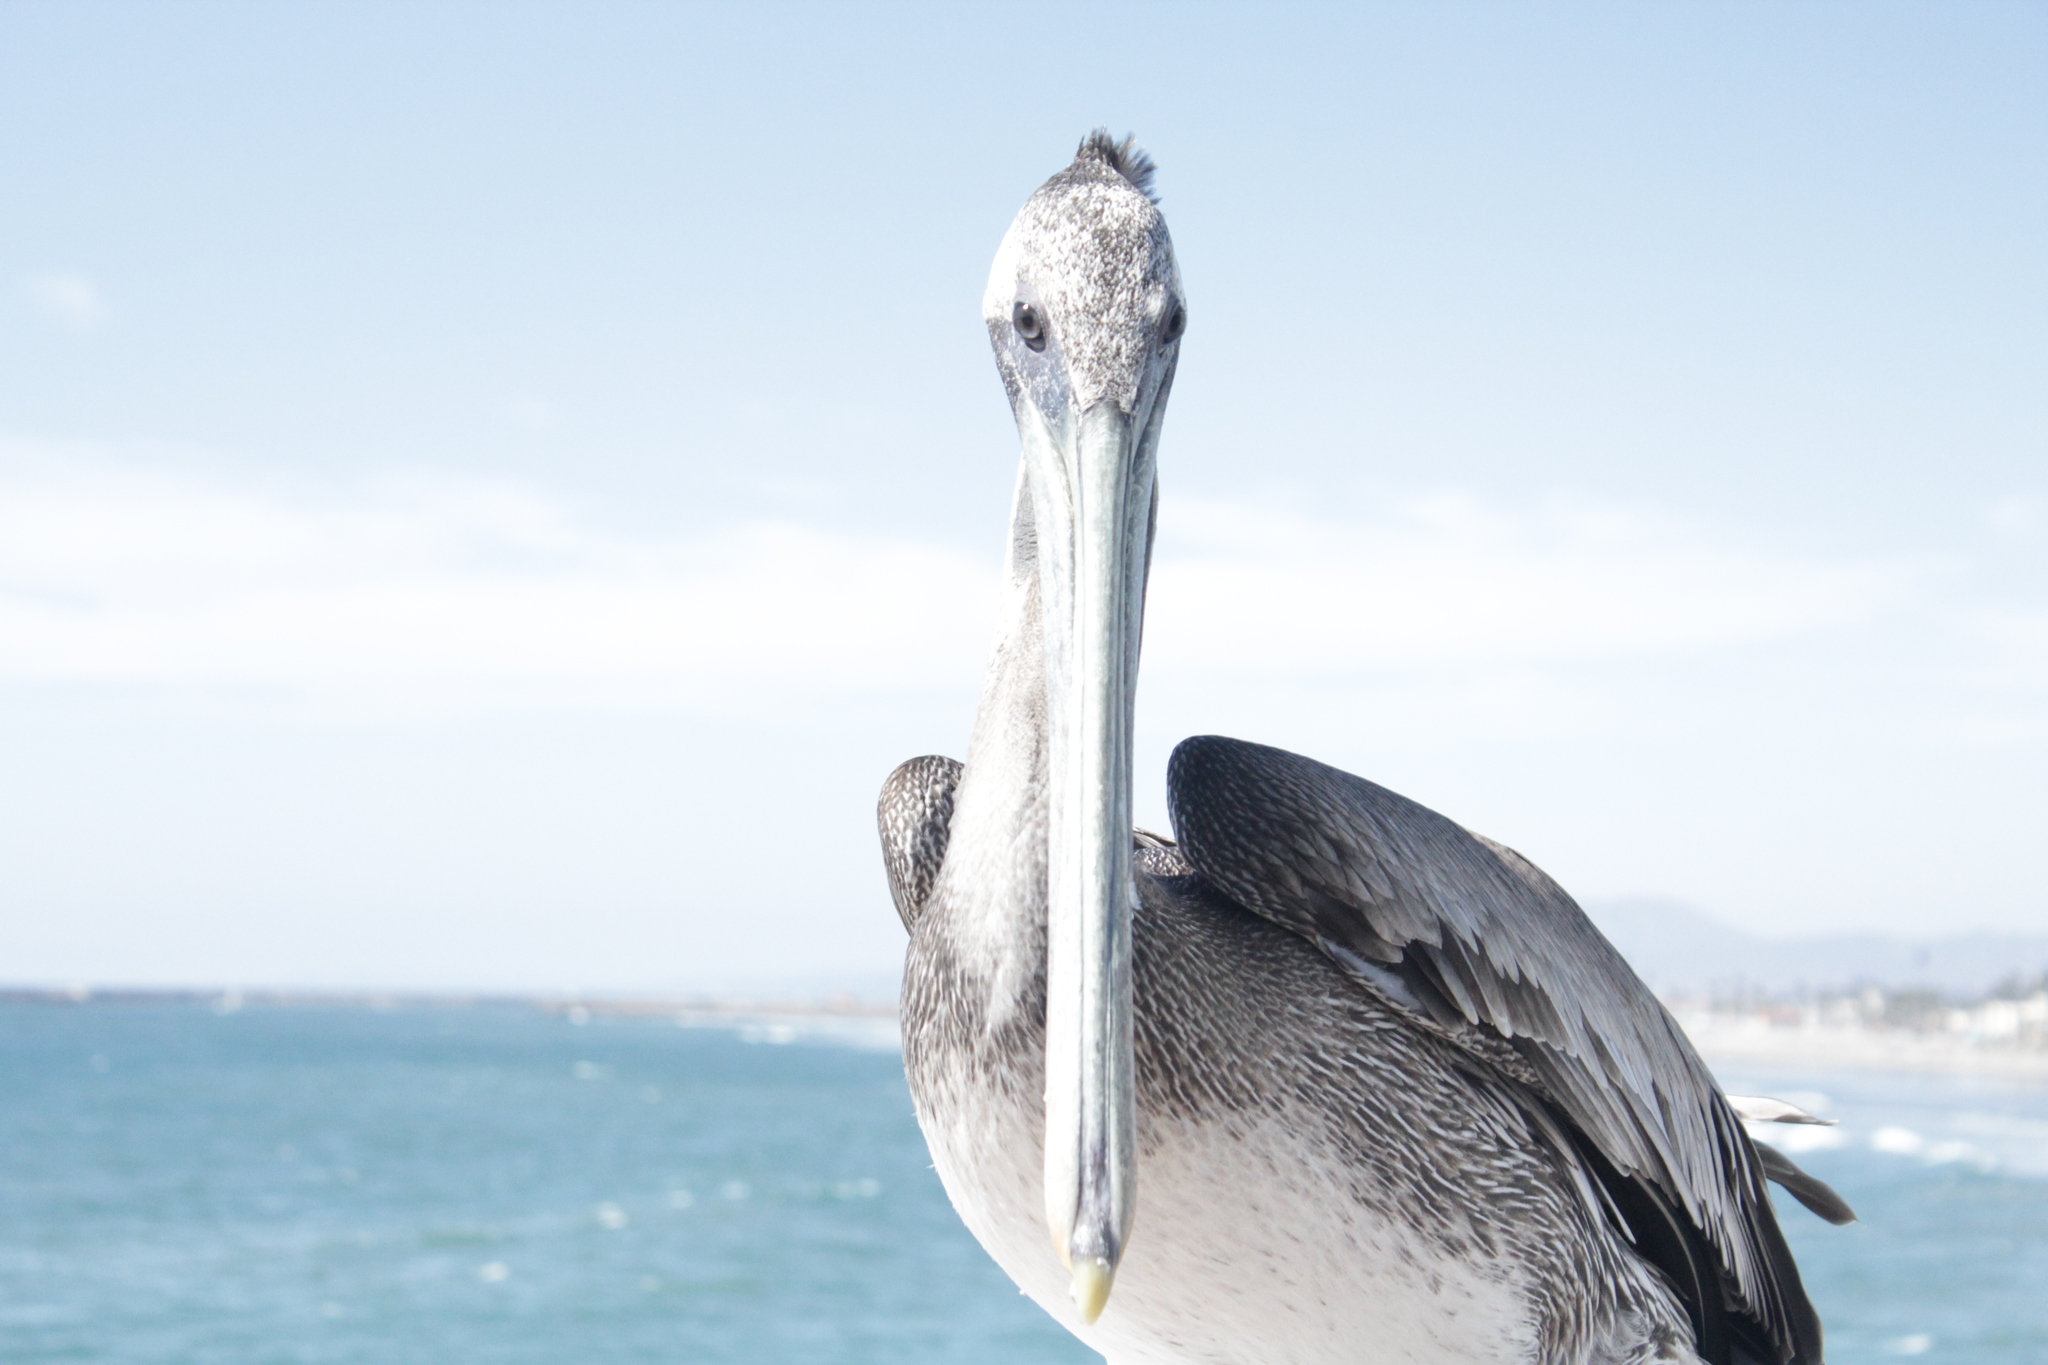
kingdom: Animalia
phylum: Chordata
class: Aves
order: Pelecaniformes
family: Pelecanidae
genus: Pelecanus
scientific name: Pelecanus occidentalis
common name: Brown pelican
